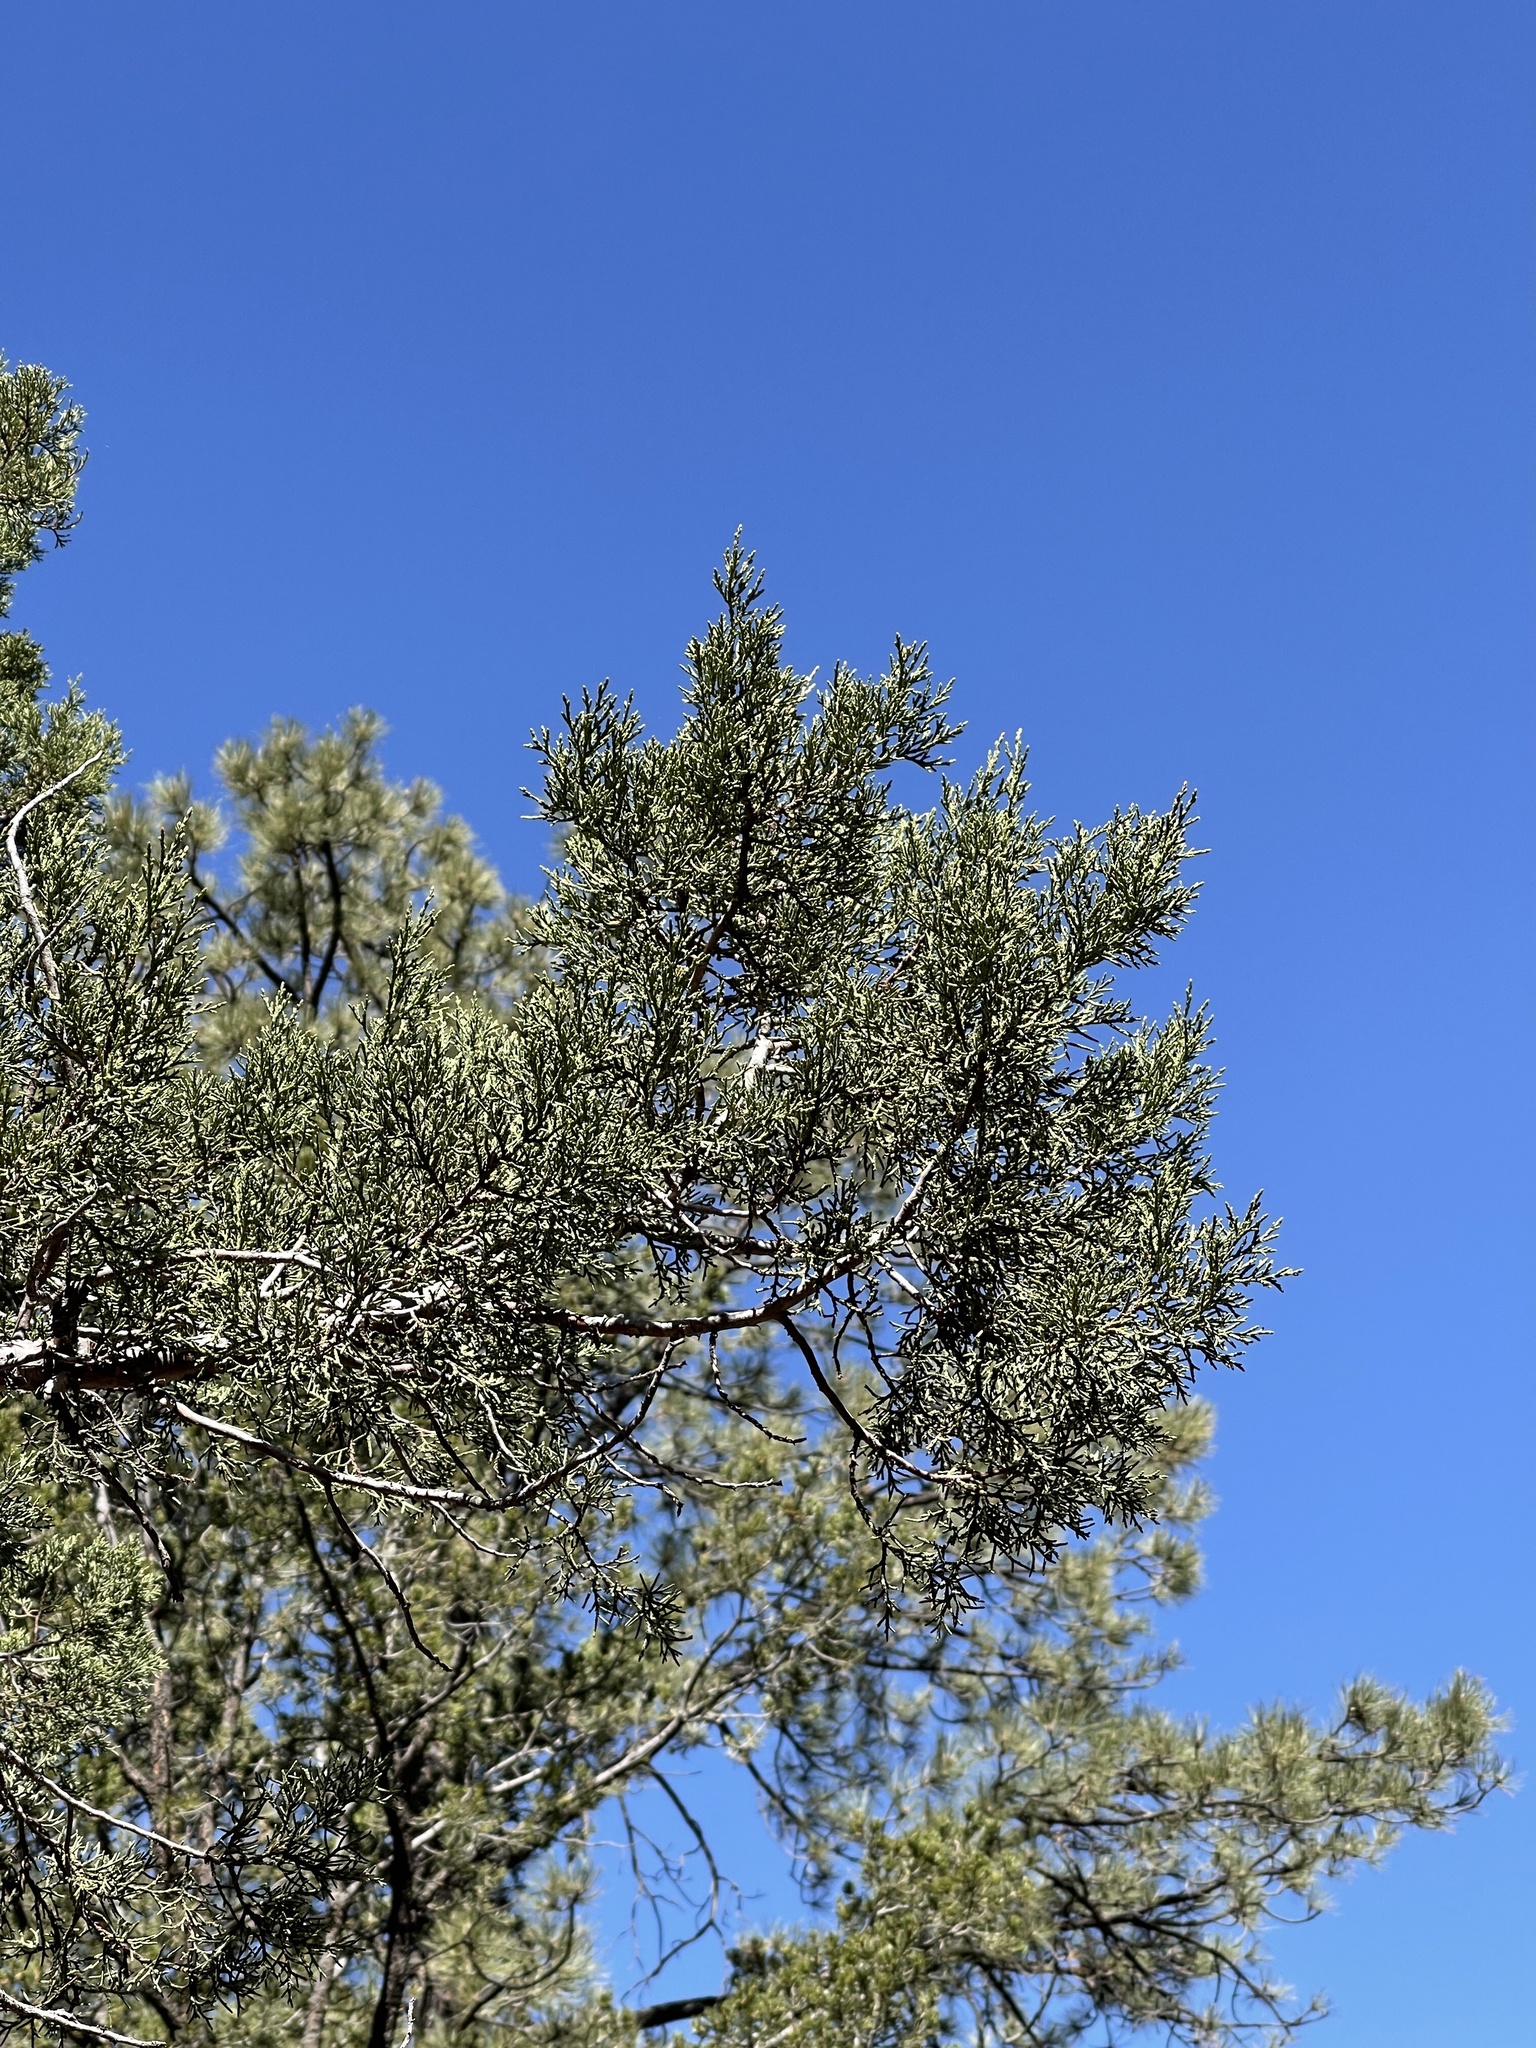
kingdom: Plantae
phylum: Tracheophyta
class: Pinopsida
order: Pinales
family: Cupressaceae
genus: Juniperus
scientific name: Juniperus deppeana
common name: Alligator juniper
